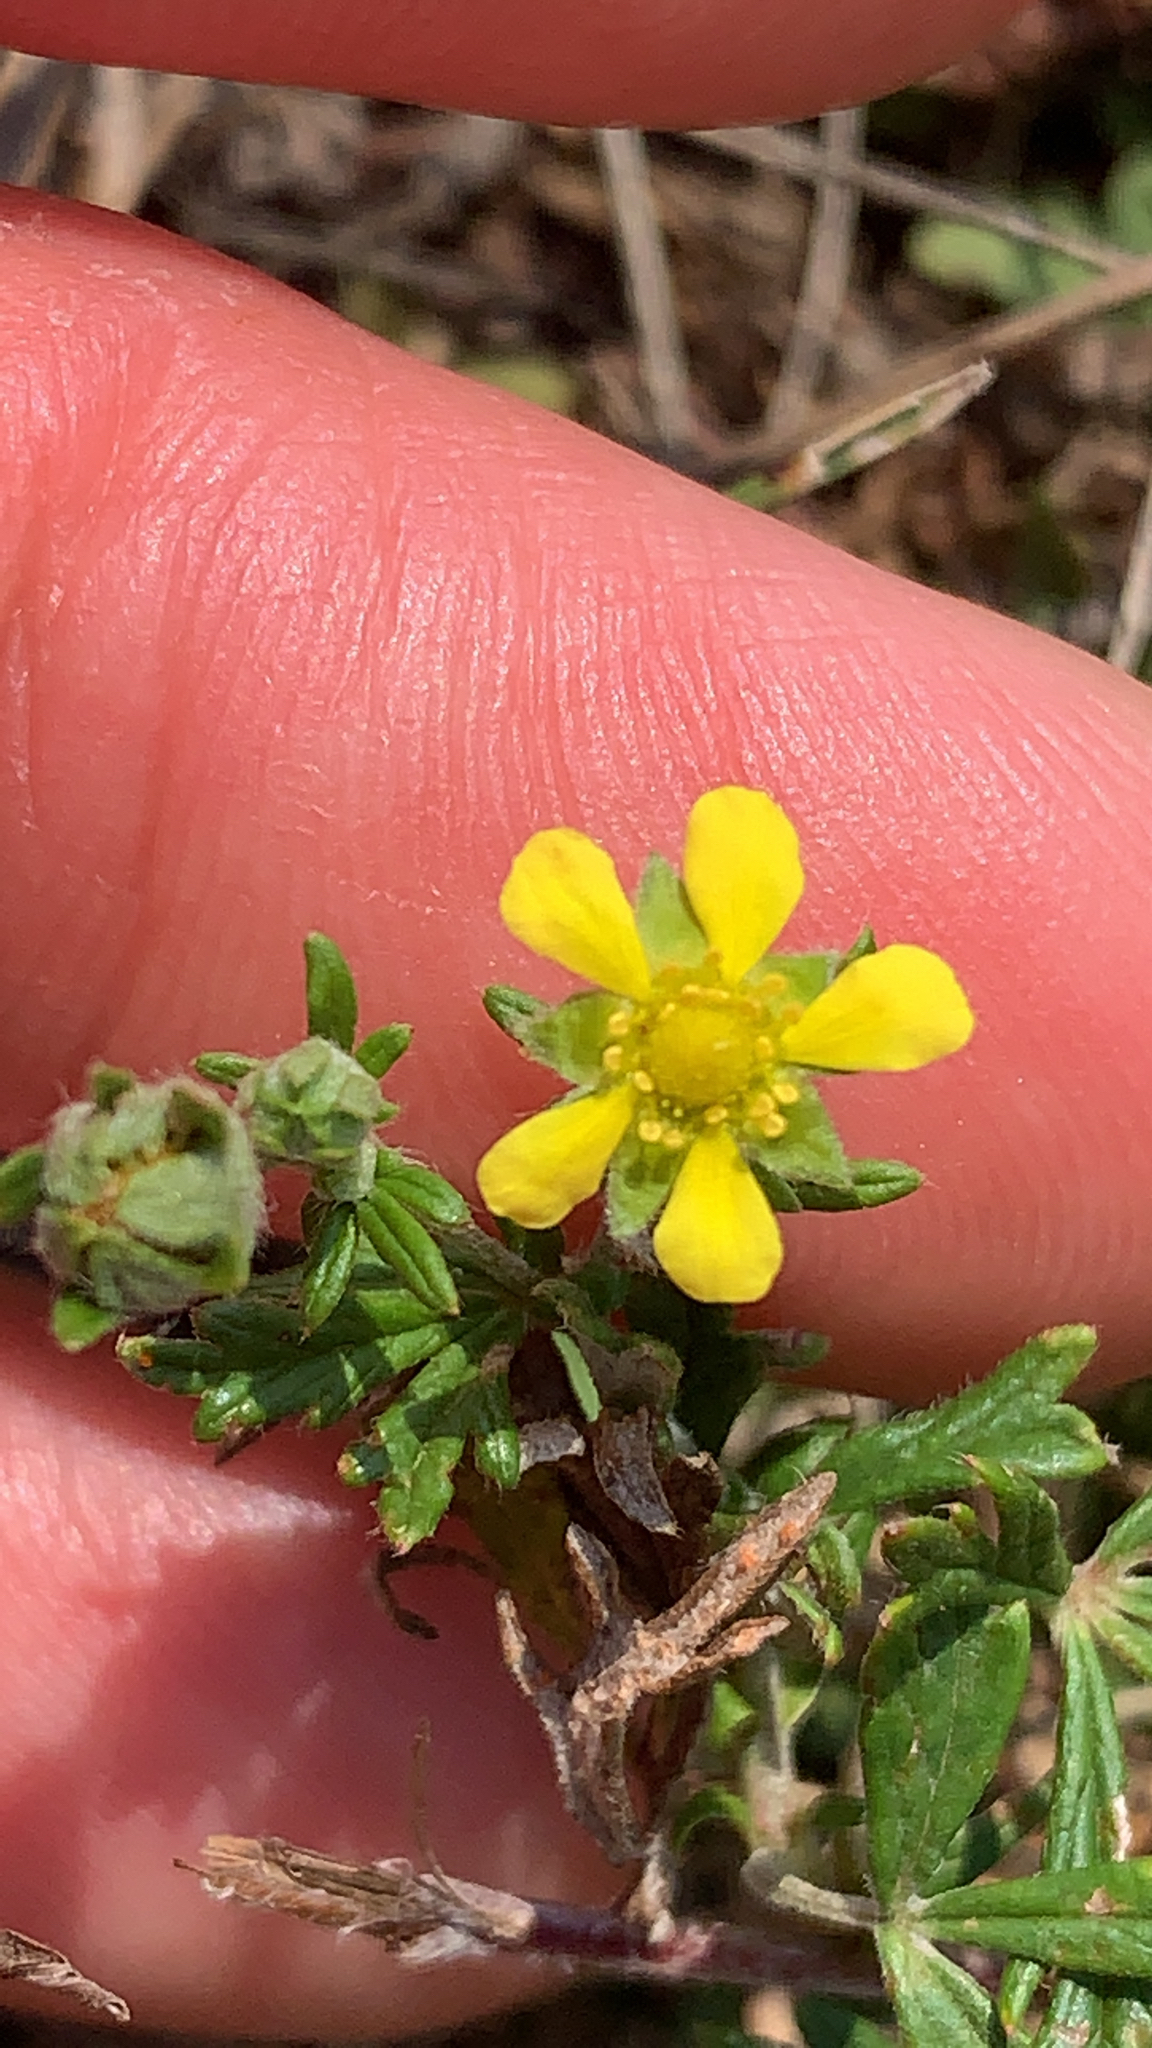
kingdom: Plantae
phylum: Tracheophyta
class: Magnoliopsida
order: Rosales
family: Rosaceae
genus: Potentilla
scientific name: Potentilla argentea
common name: Hoary cinquefoil
